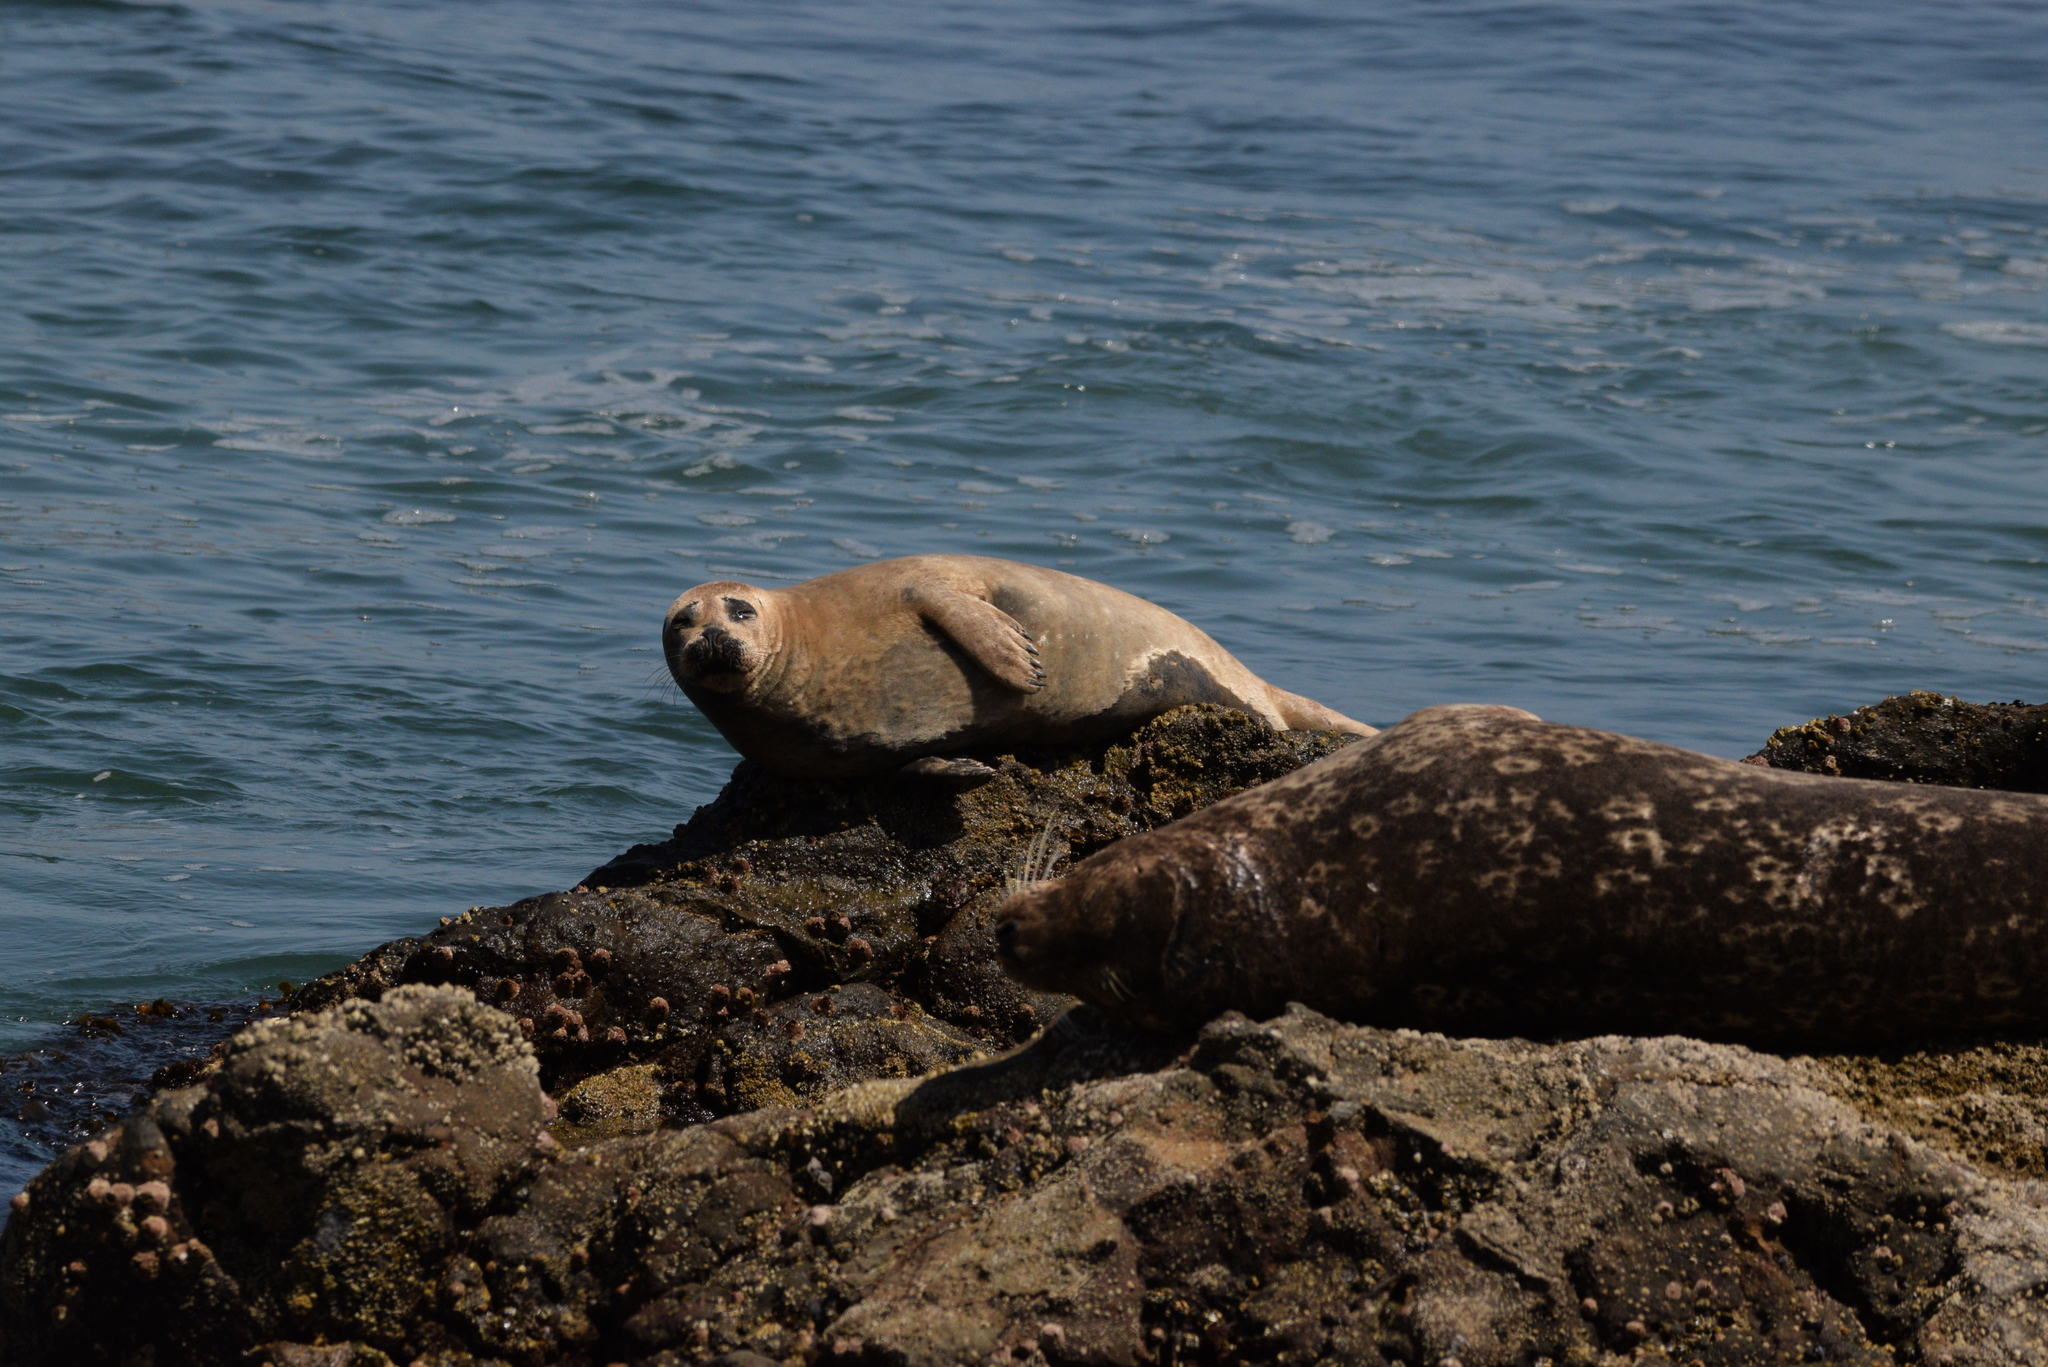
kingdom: Animalia
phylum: Chordata
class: Mammalia
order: Carnivora
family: Phocidae
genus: Phoca
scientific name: Phoca vitulina
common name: Harbor seal
